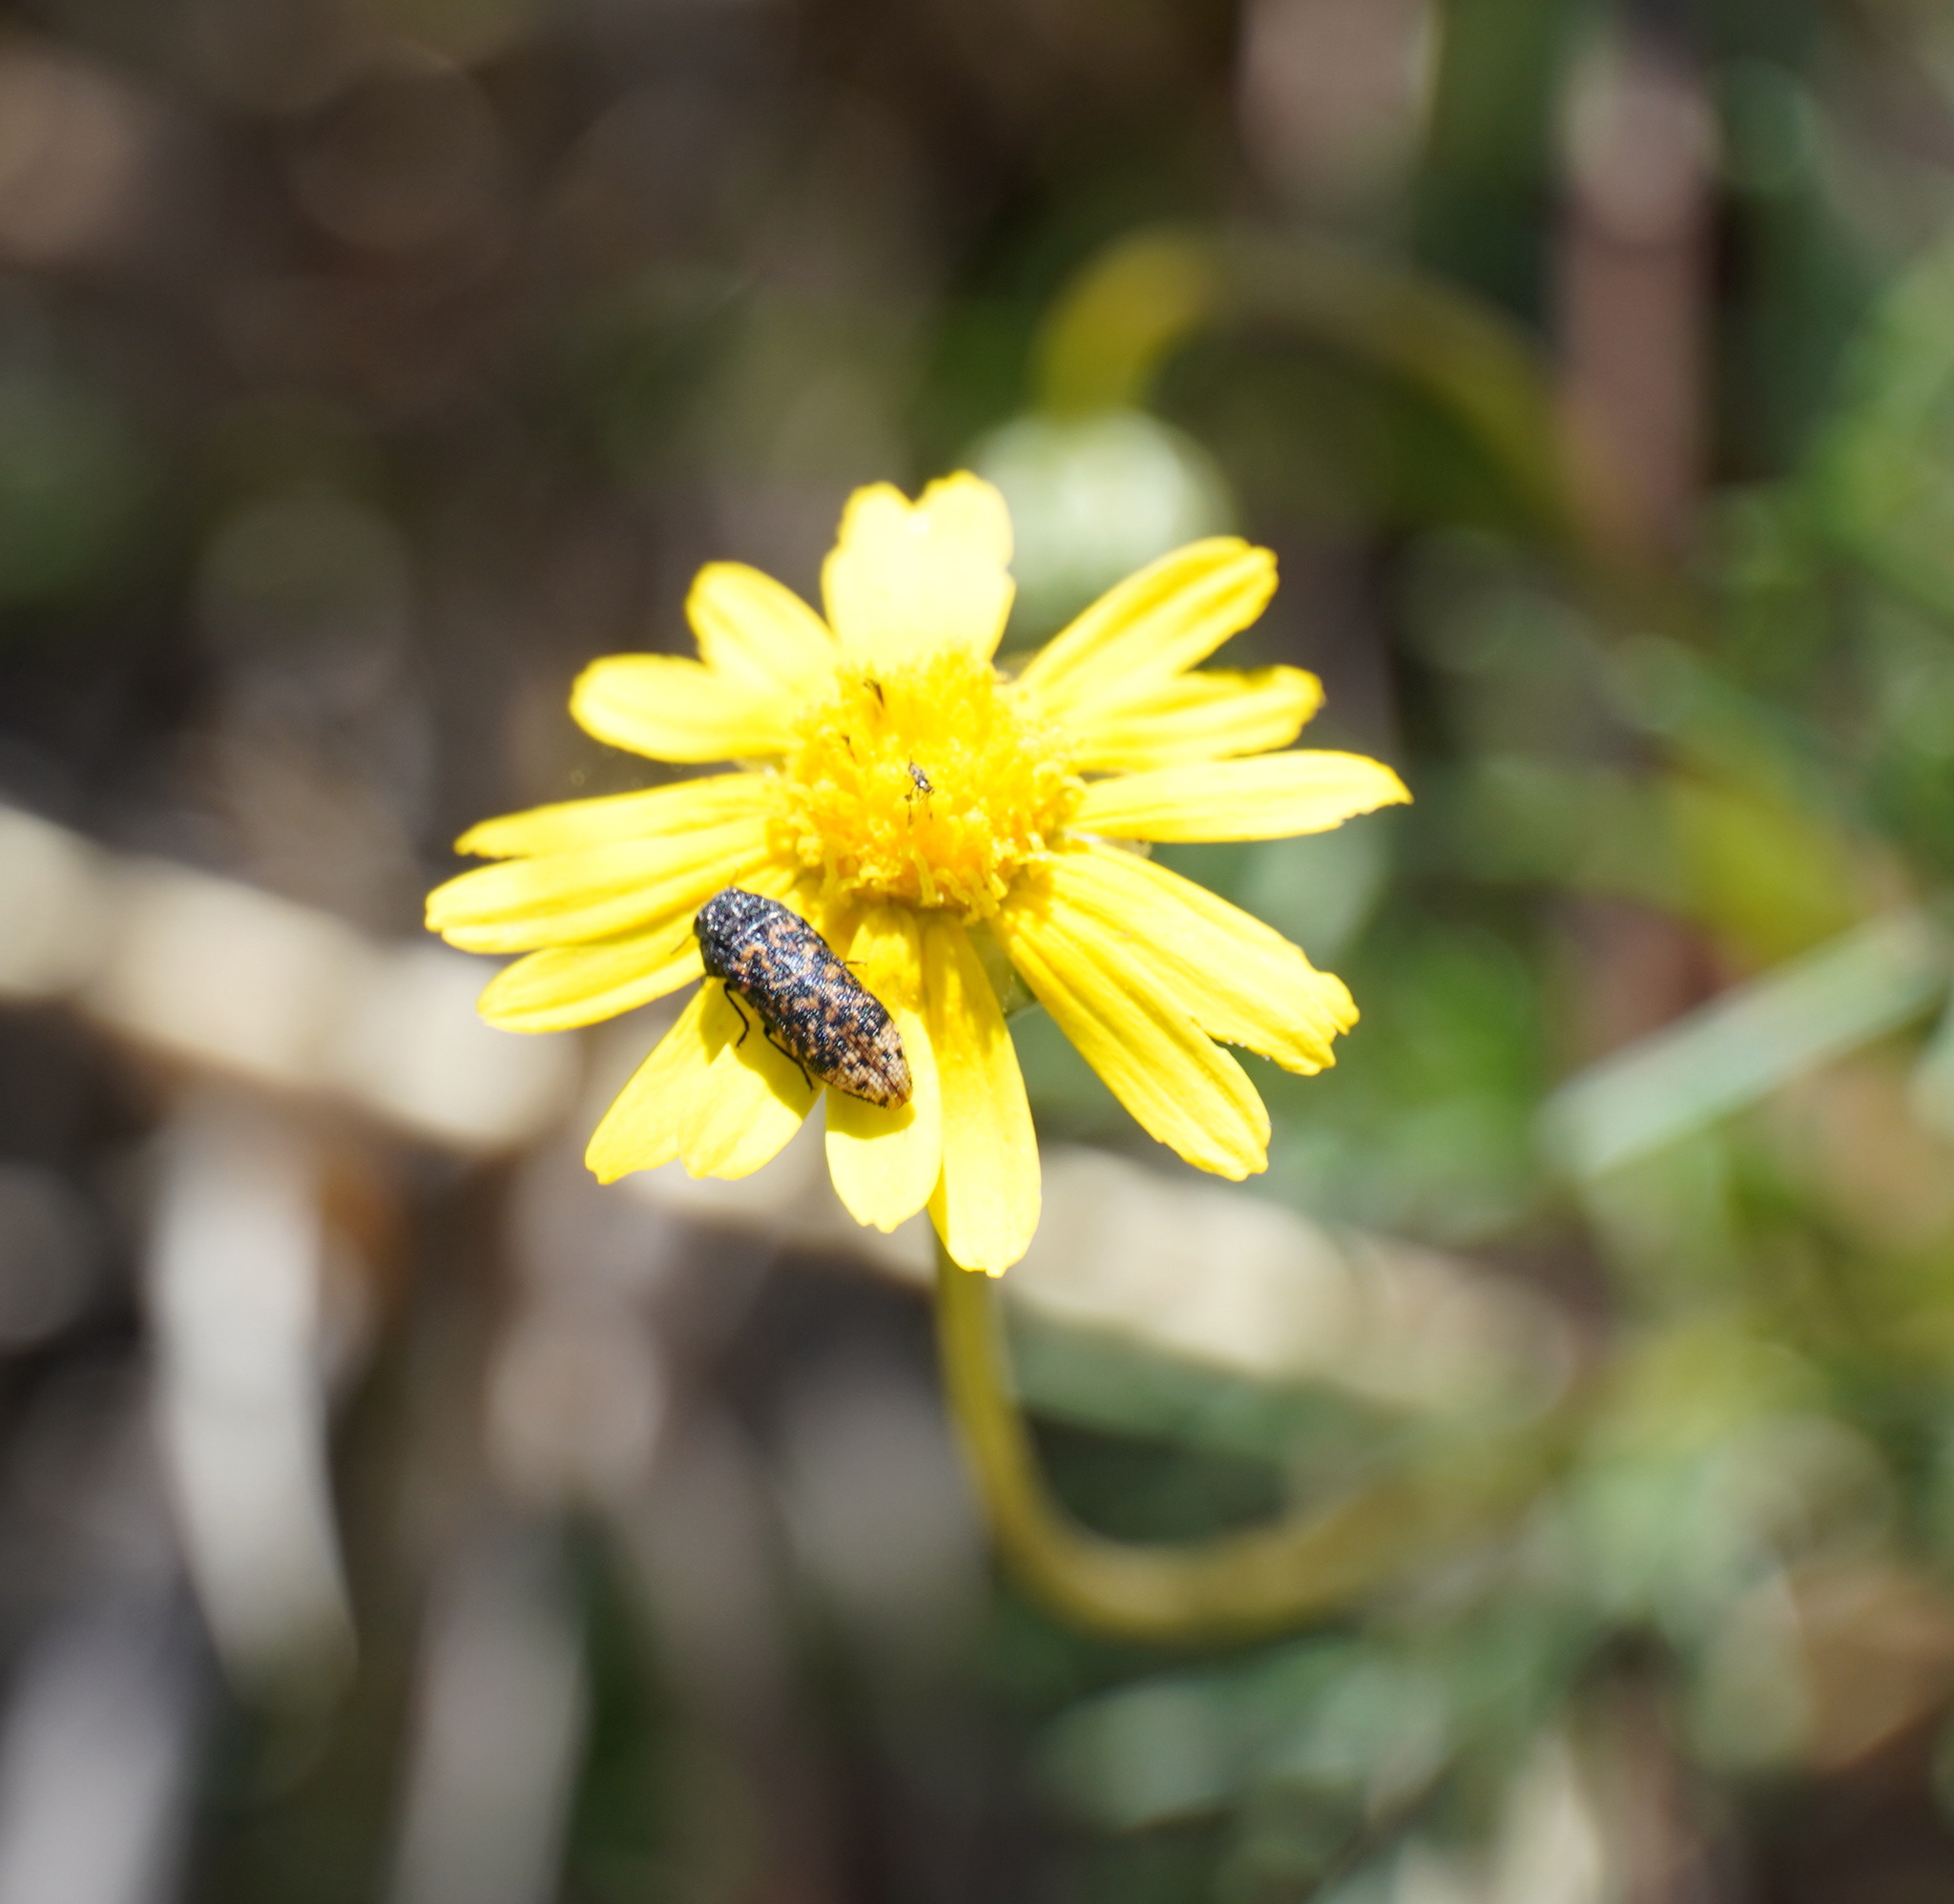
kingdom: Animalia
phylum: Arthropoda
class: Insecta
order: Coleoptera
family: Buprestidae
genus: Acmaeodera
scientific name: Acmaeodera ruficaudis
